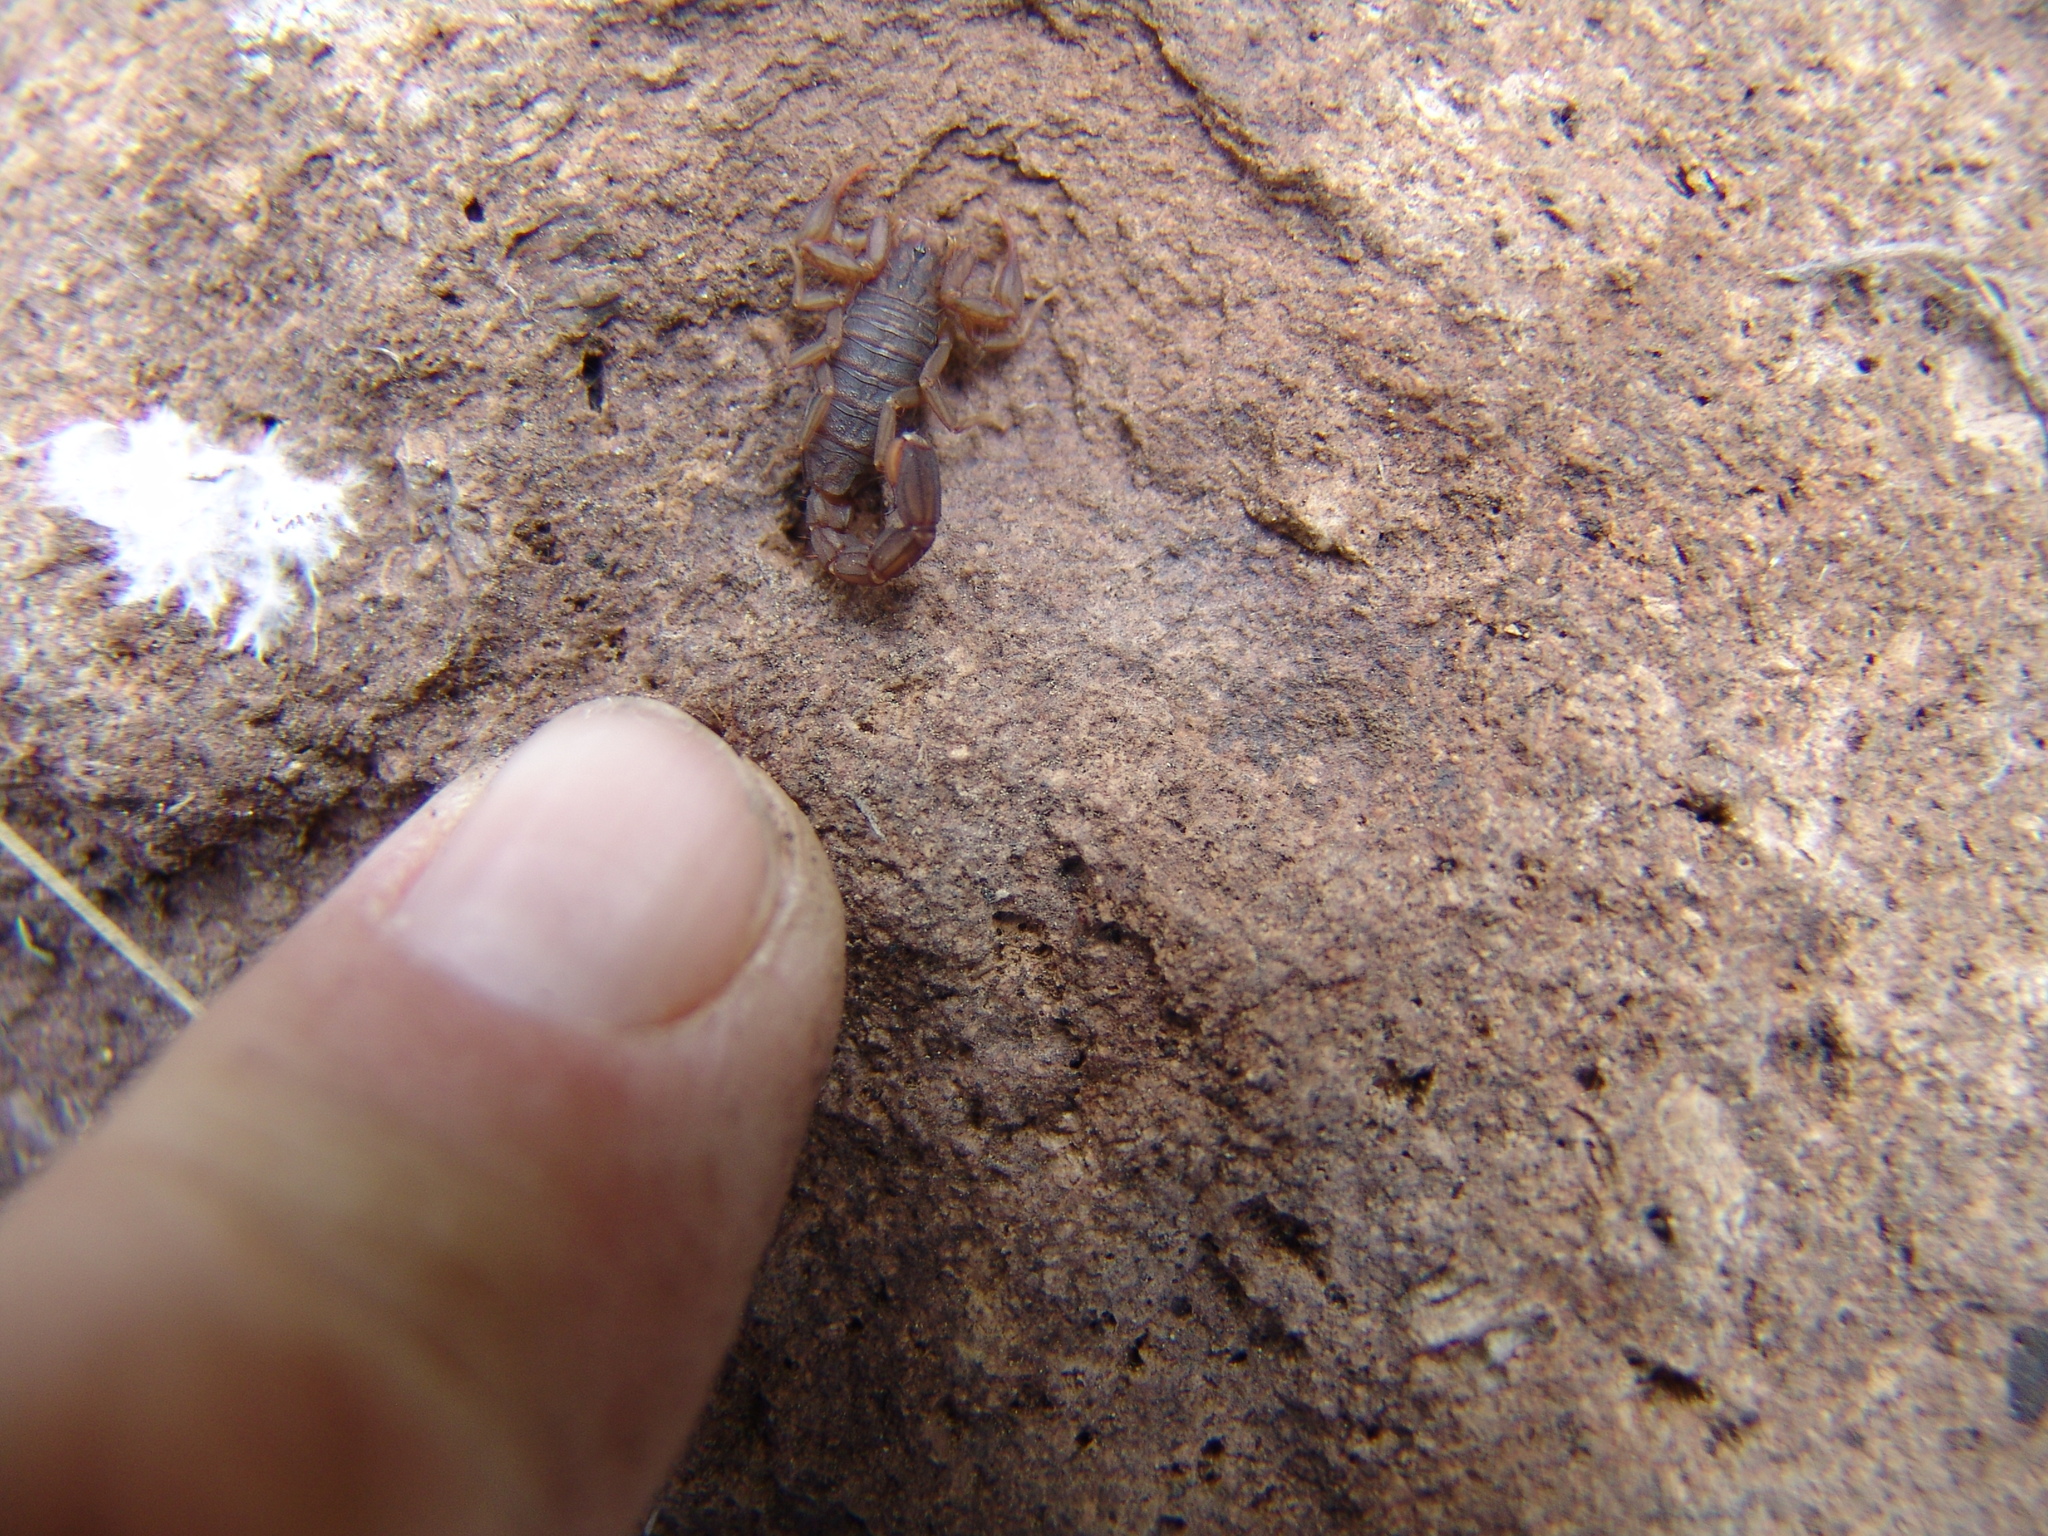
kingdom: Animalia
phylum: Arthropoda
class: Arachnida
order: Scorpiones
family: Vaejovidae
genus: Vaejovis
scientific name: Vaejovis cashi
